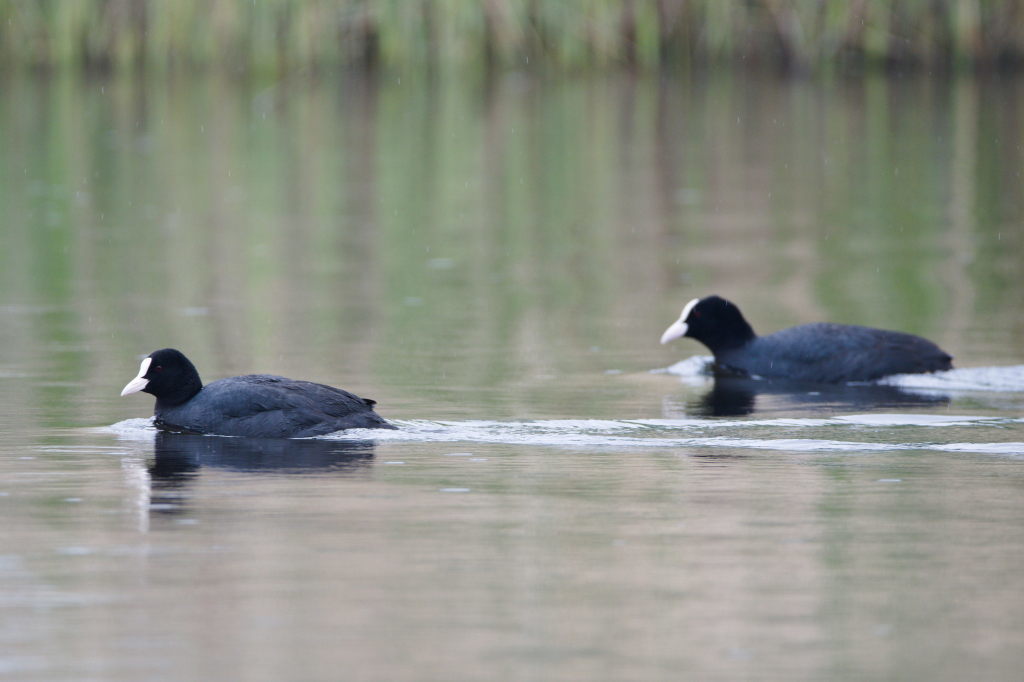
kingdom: Animalia
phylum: Chordata
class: Aves
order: Gruiformes
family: Rallidae
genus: Fulica
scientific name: Fulica atra
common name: Eurasian coot
